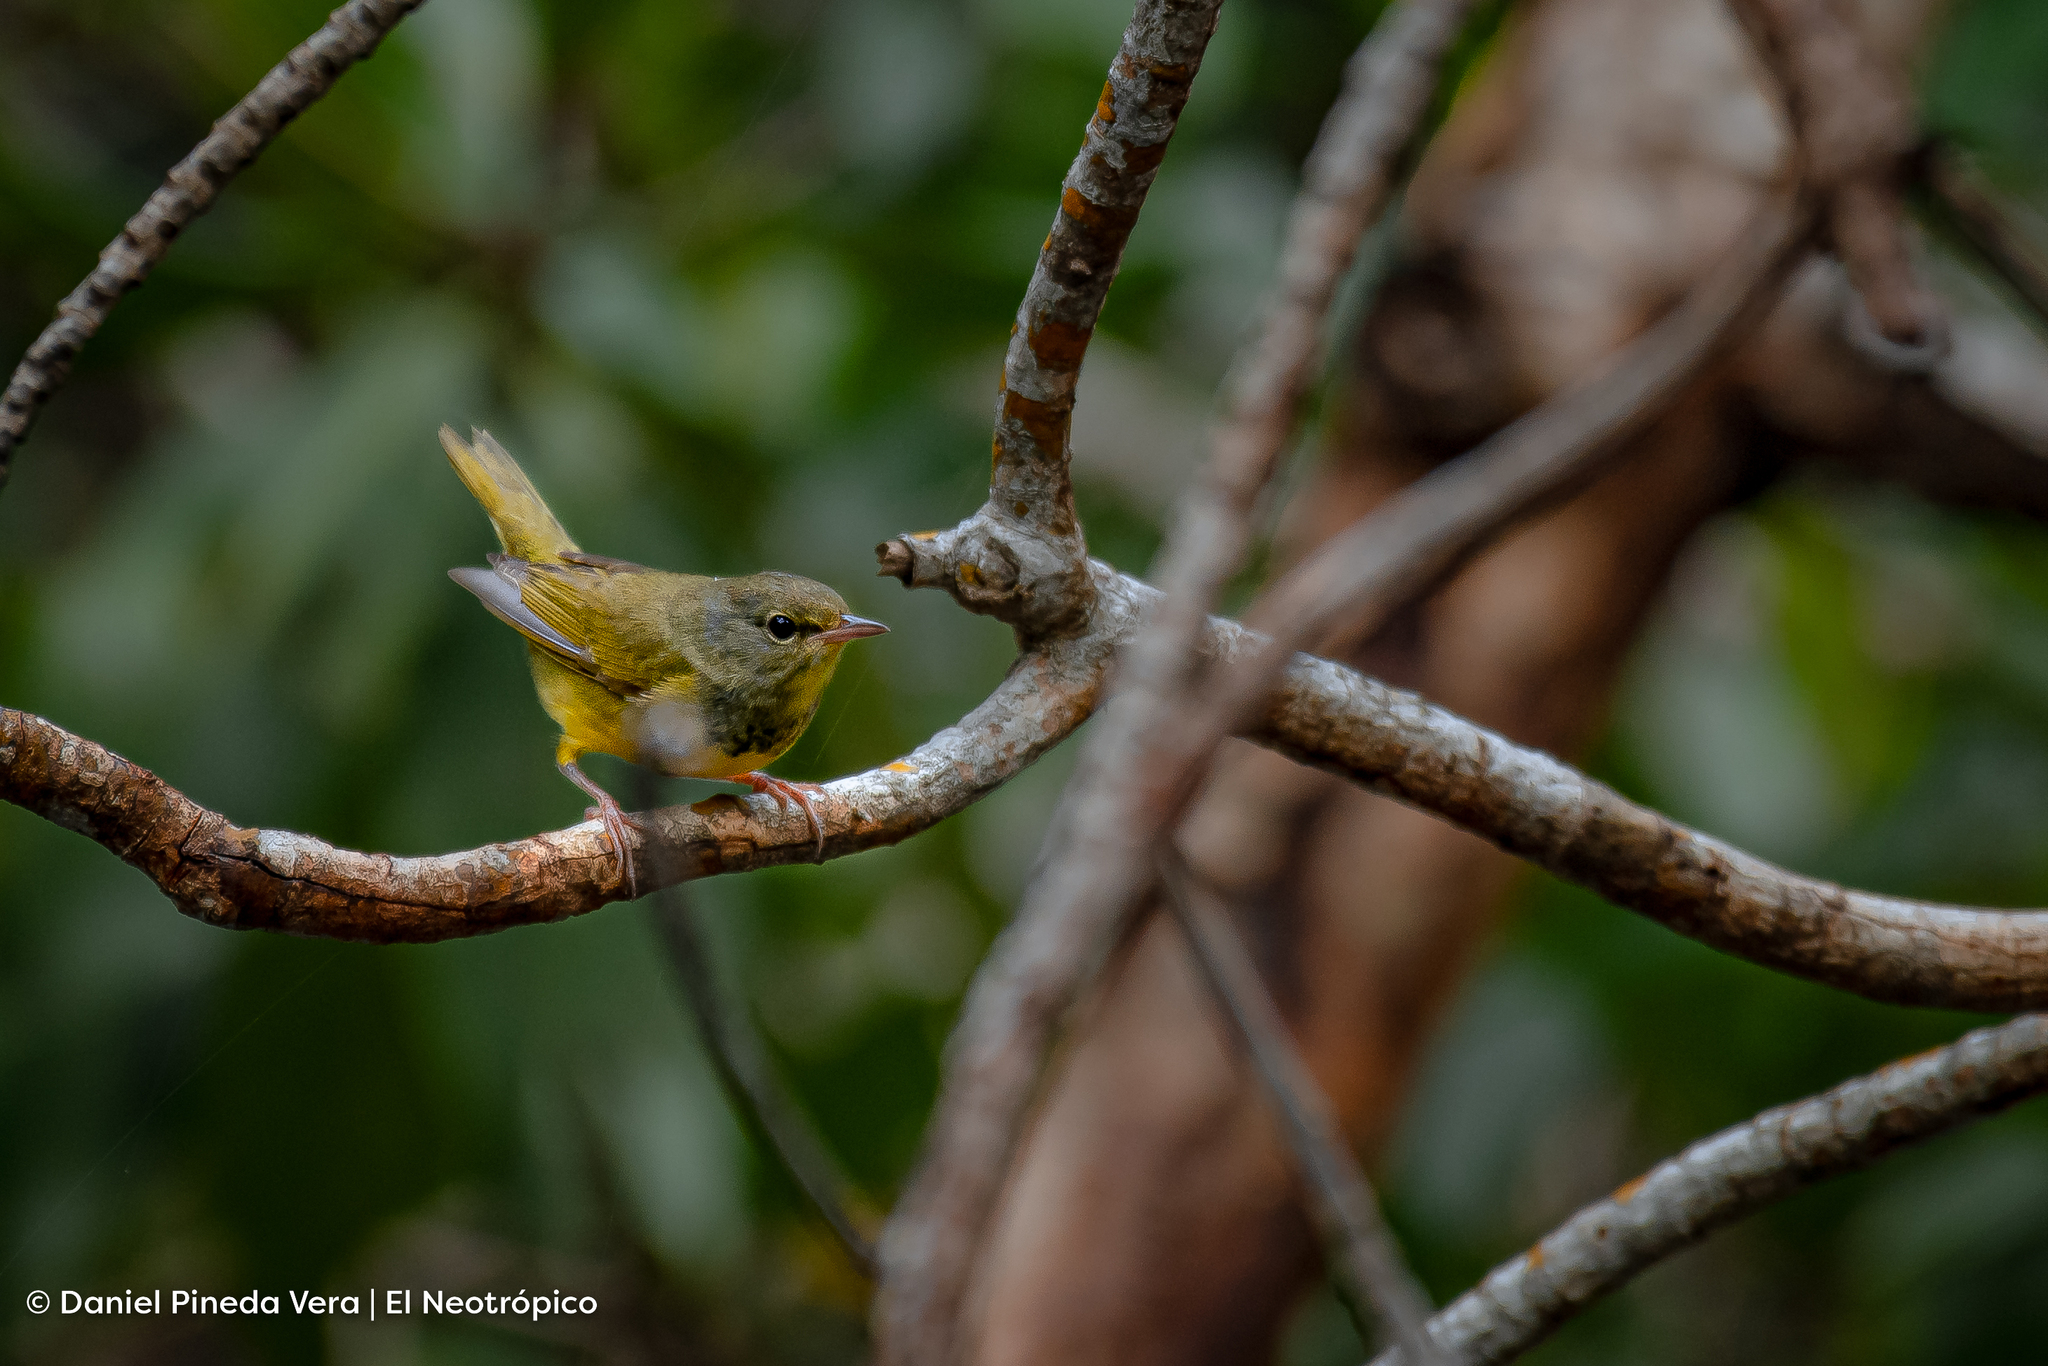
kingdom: Animalia
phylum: Chordata
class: Aves
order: Passeriformes
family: Parulidae
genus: Geothlypis
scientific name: Geothlypis philadelphia
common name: Mourning warbler
